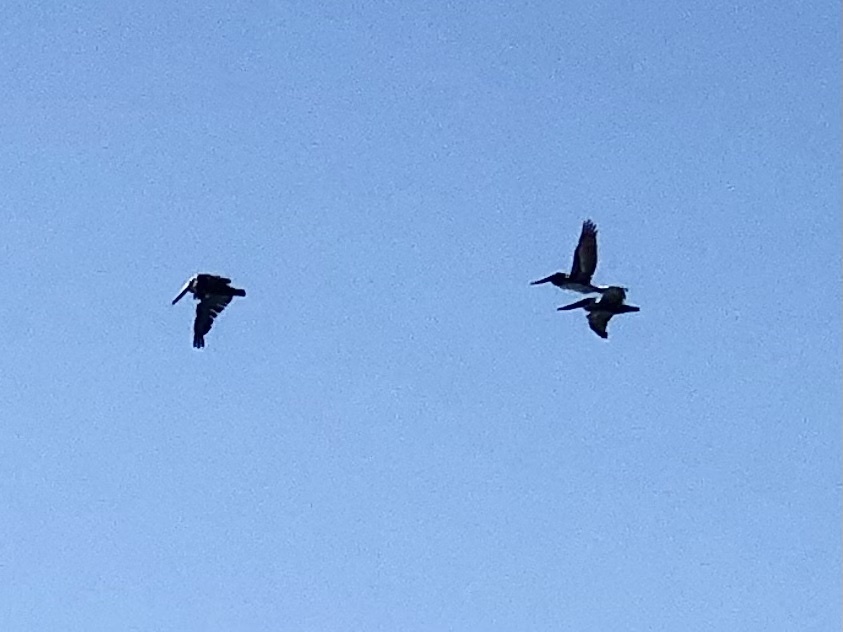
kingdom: Animalia
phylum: Chordata
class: Aves
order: Pelecaniformes
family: Pelecanidae
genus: Pelecanus
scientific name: Pelecanus occidentalis
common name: Brown pelican
